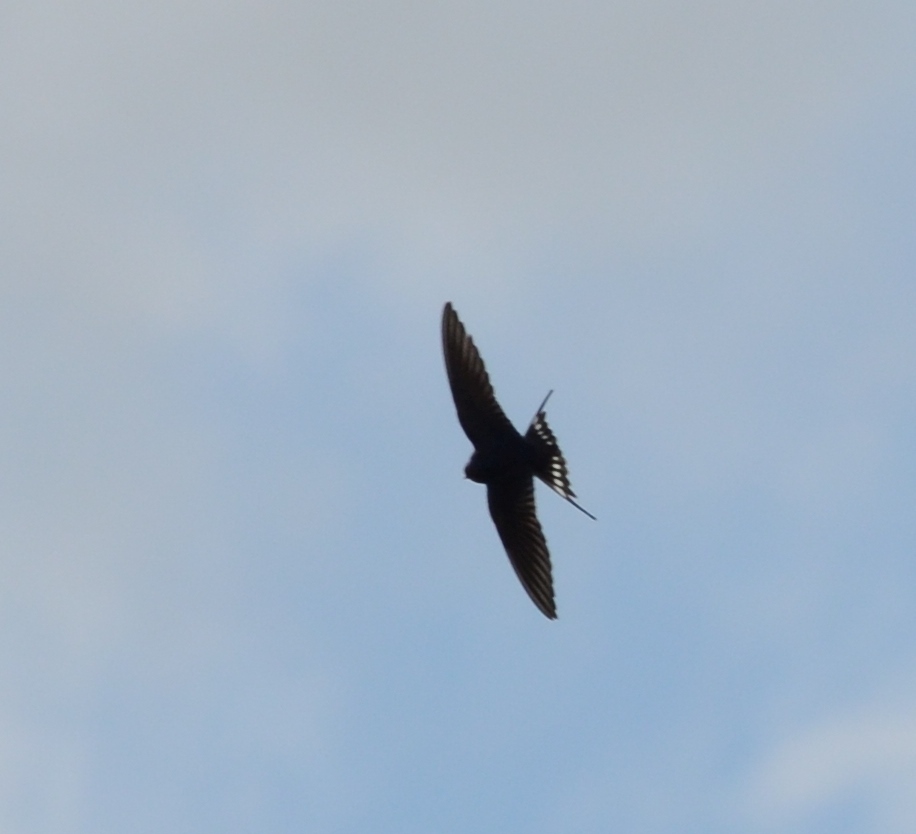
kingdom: Animalia
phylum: Chordata
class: Aves
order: Passeriformes
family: Hirundinidae
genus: Hirundo
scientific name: Hirundo rustica
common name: Barn swallow
